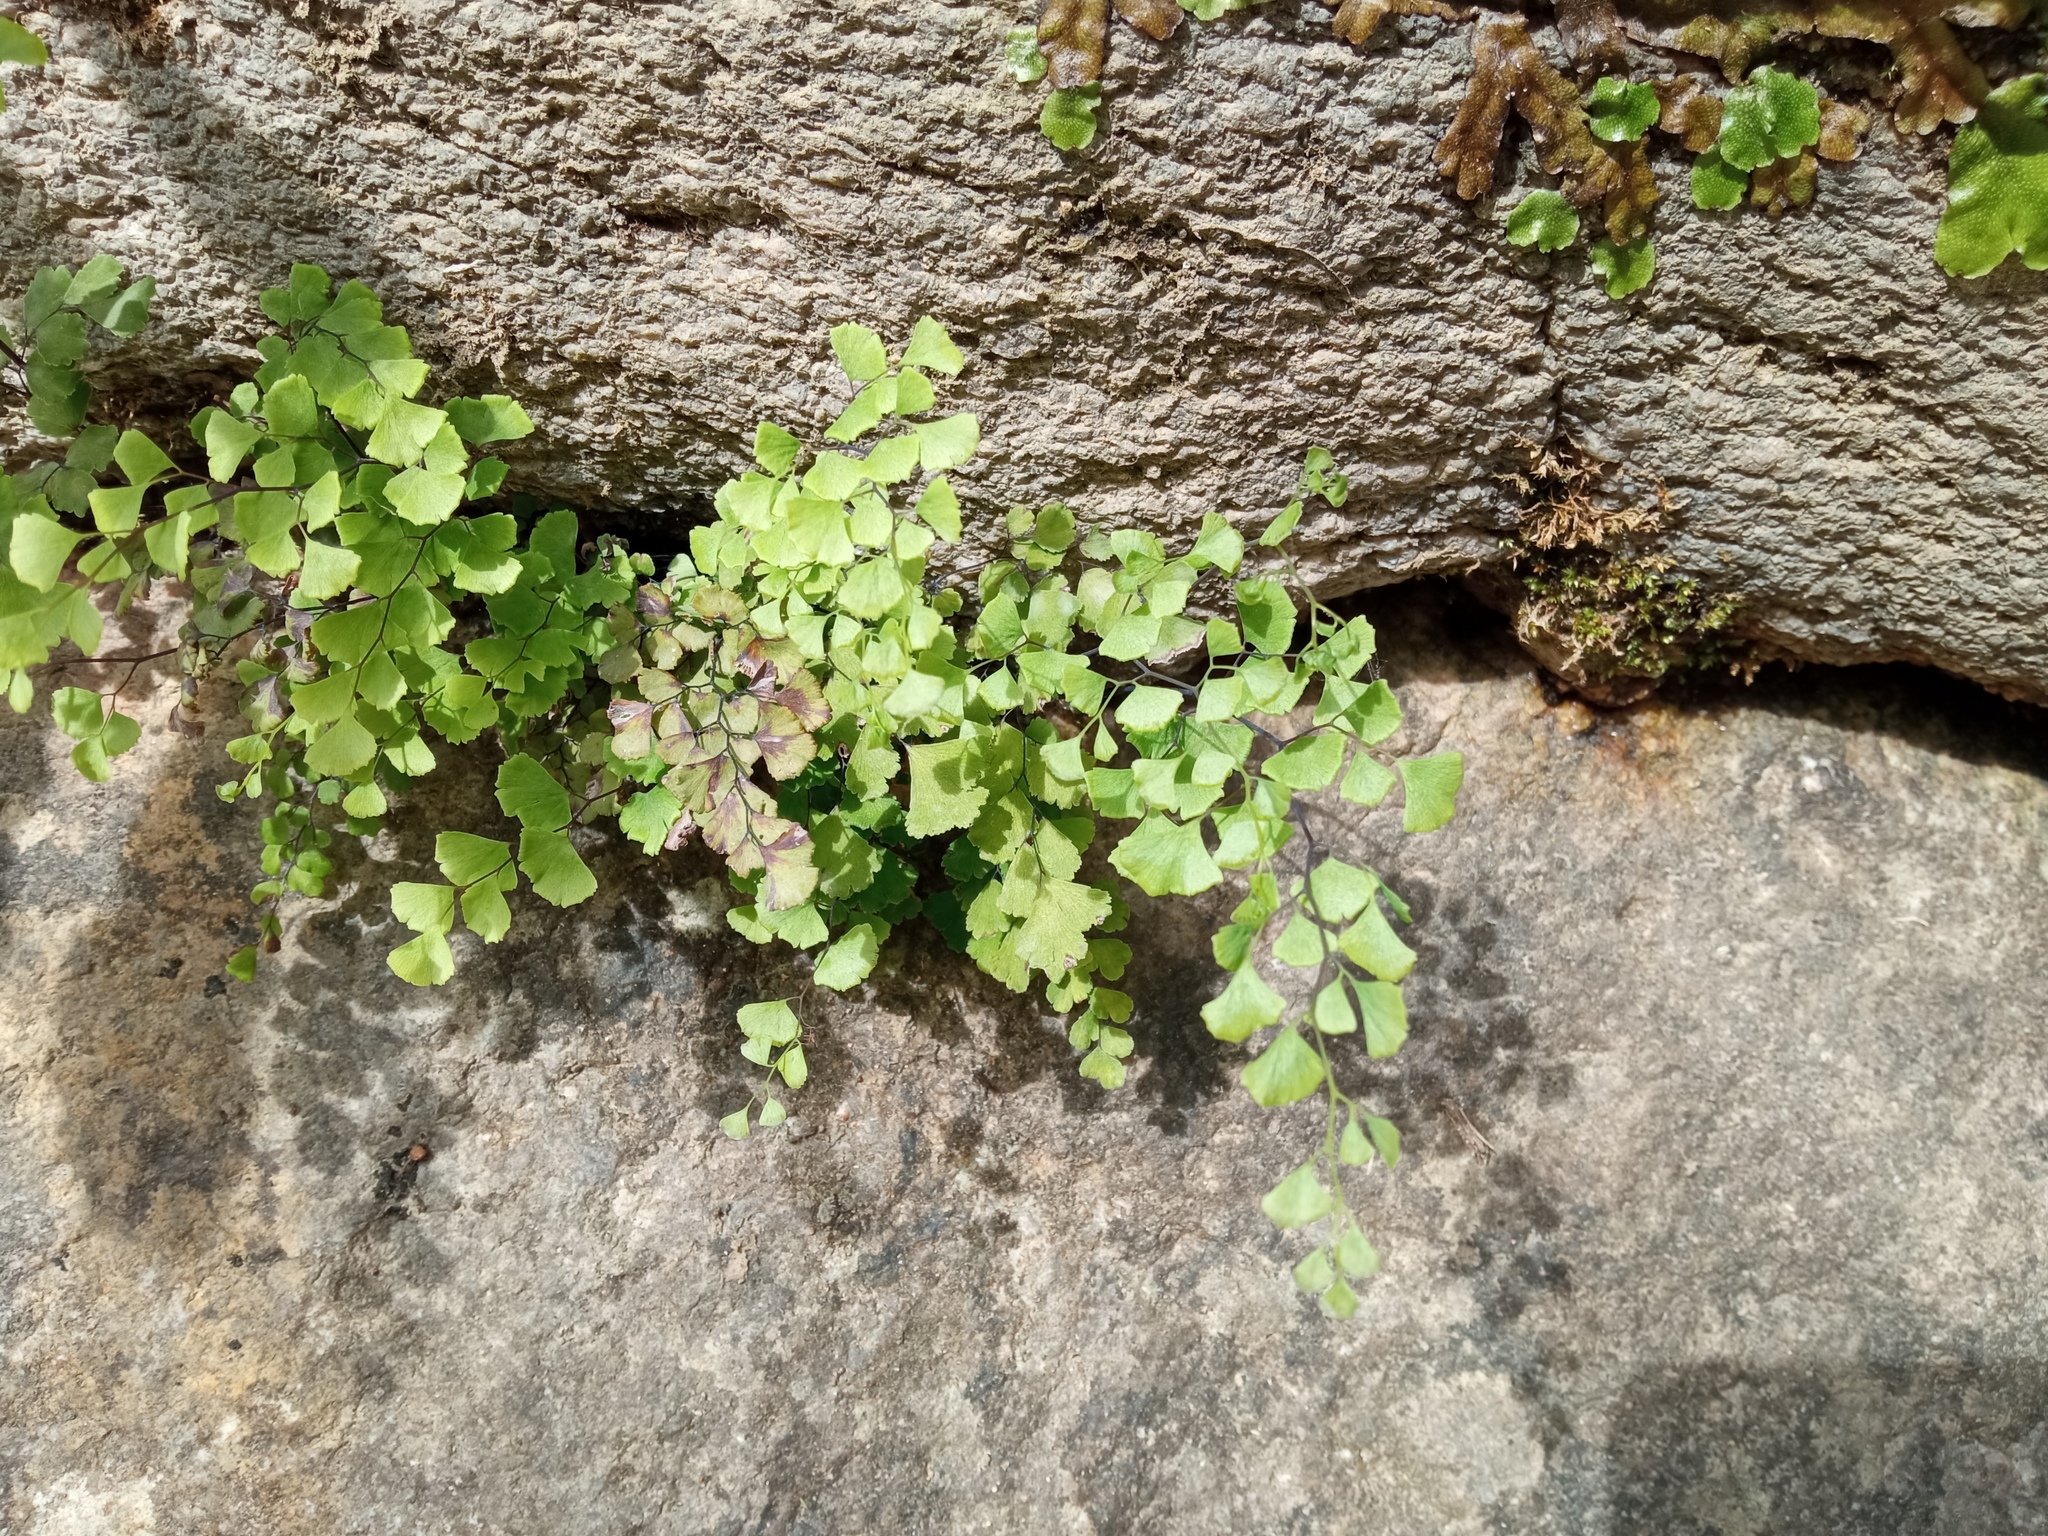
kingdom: Plantae
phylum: Tracheophyta
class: Polypodiopsida
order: Polypodiales
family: Pteridaceae
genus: Adiantum
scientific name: Adiantum capillus-veneris
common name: Maidenhair fern
